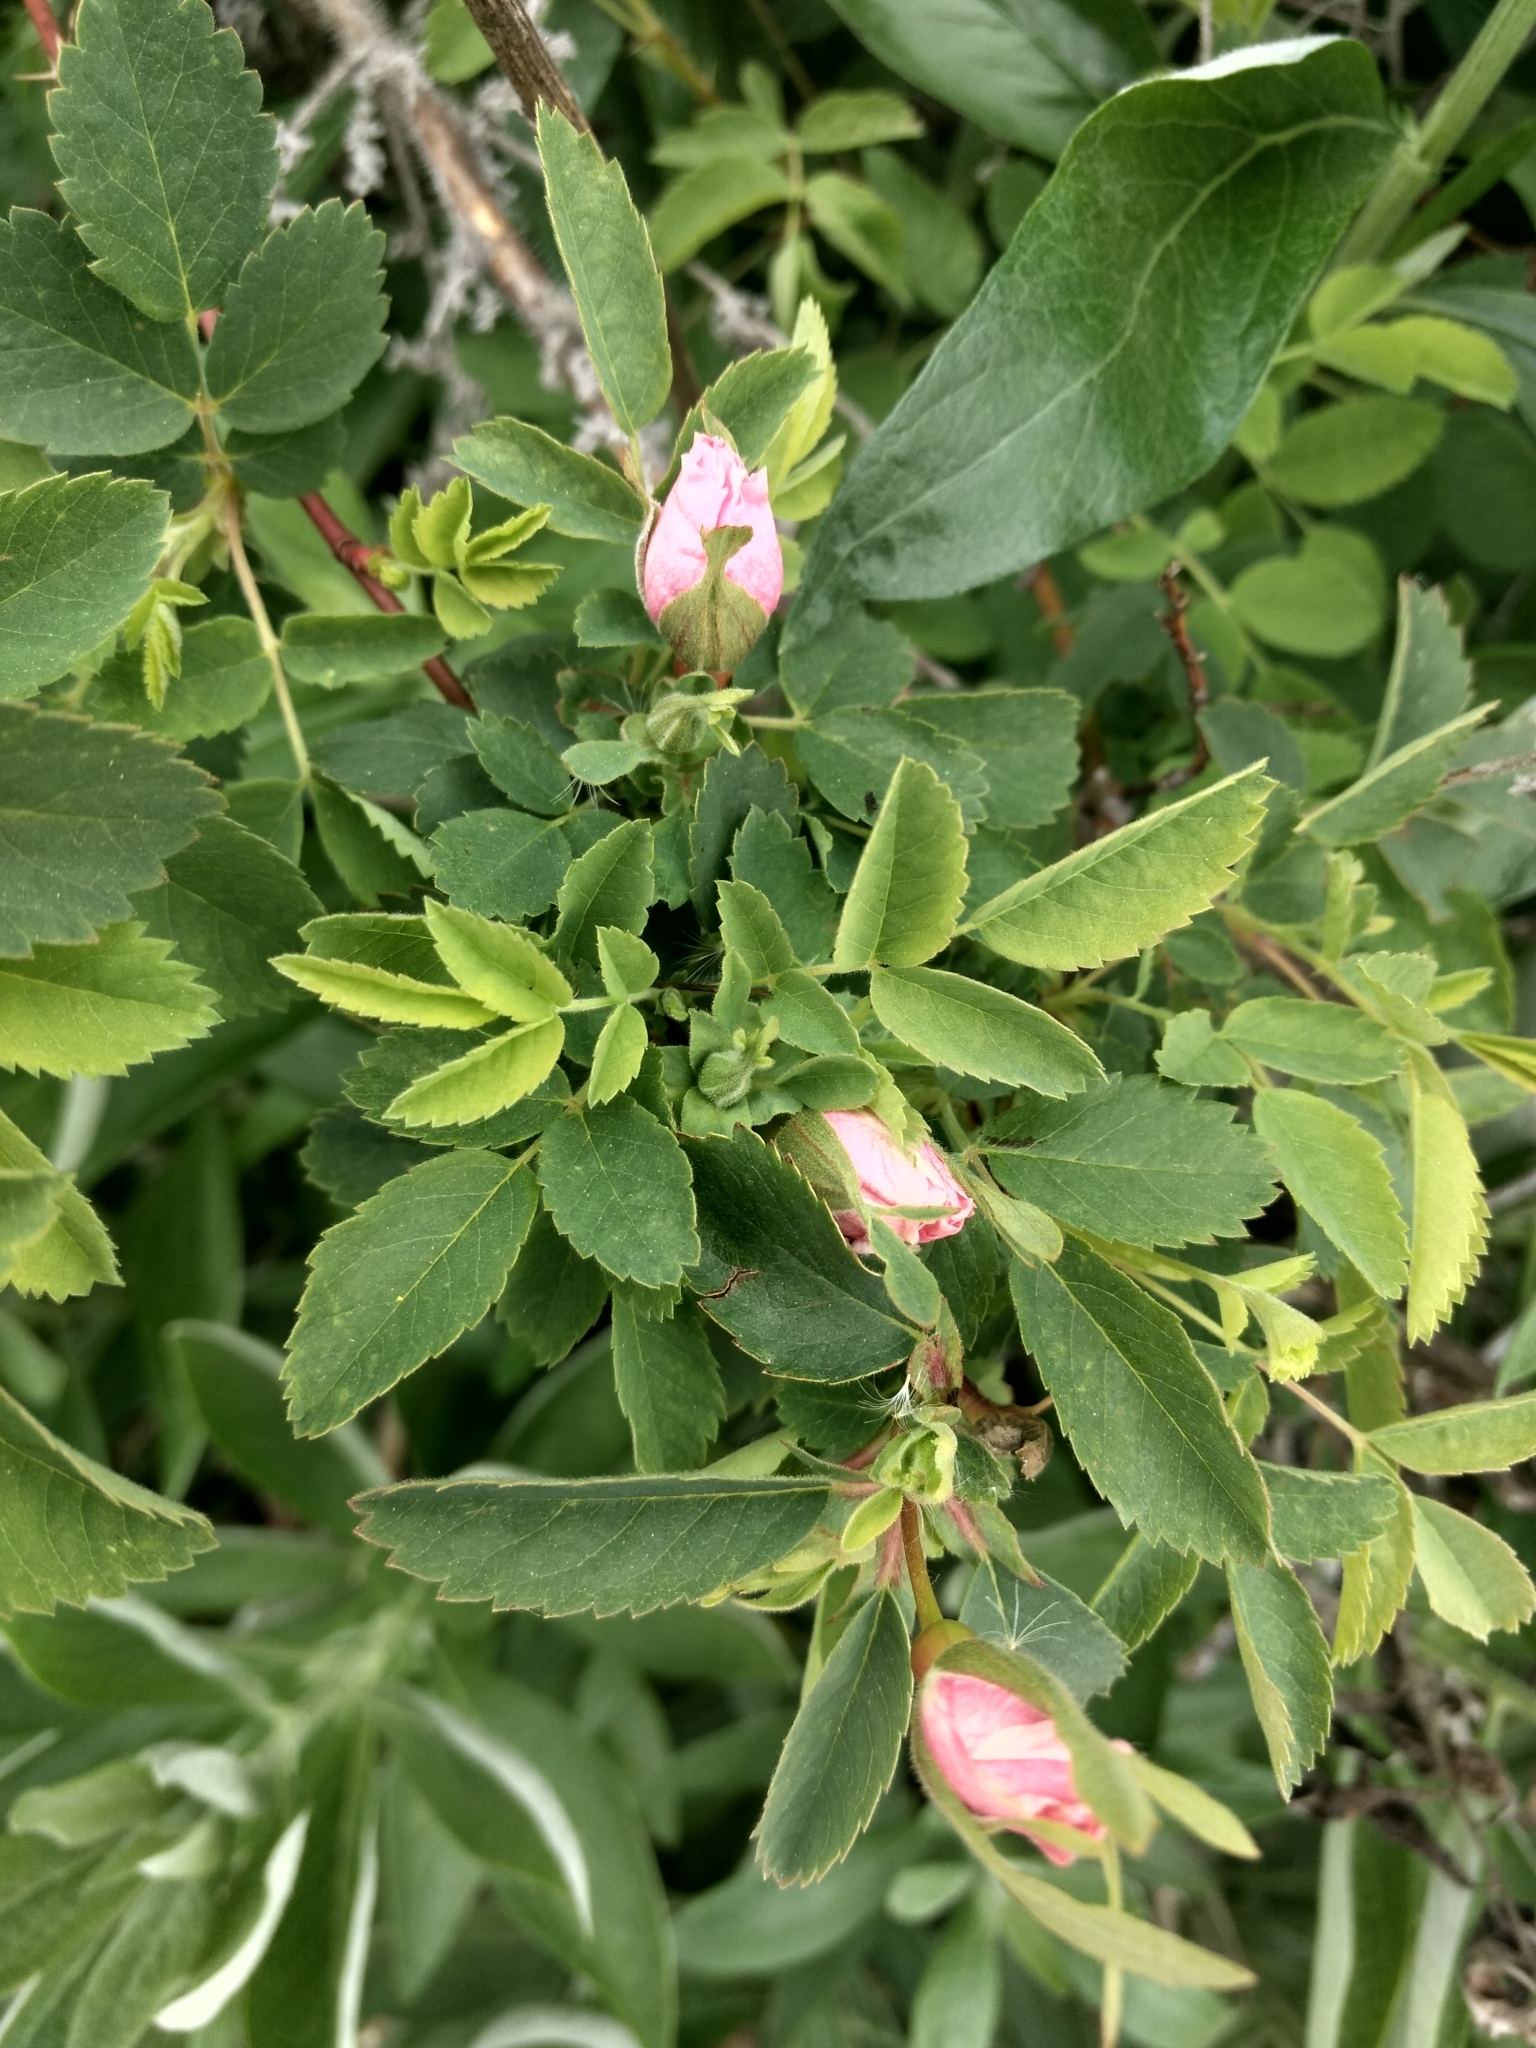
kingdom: Plantae
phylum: Tracheophyta
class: Magnoliopsida
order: Rosales
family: Rosaceae
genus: Rosa
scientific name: Rosa californica
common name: California rose
